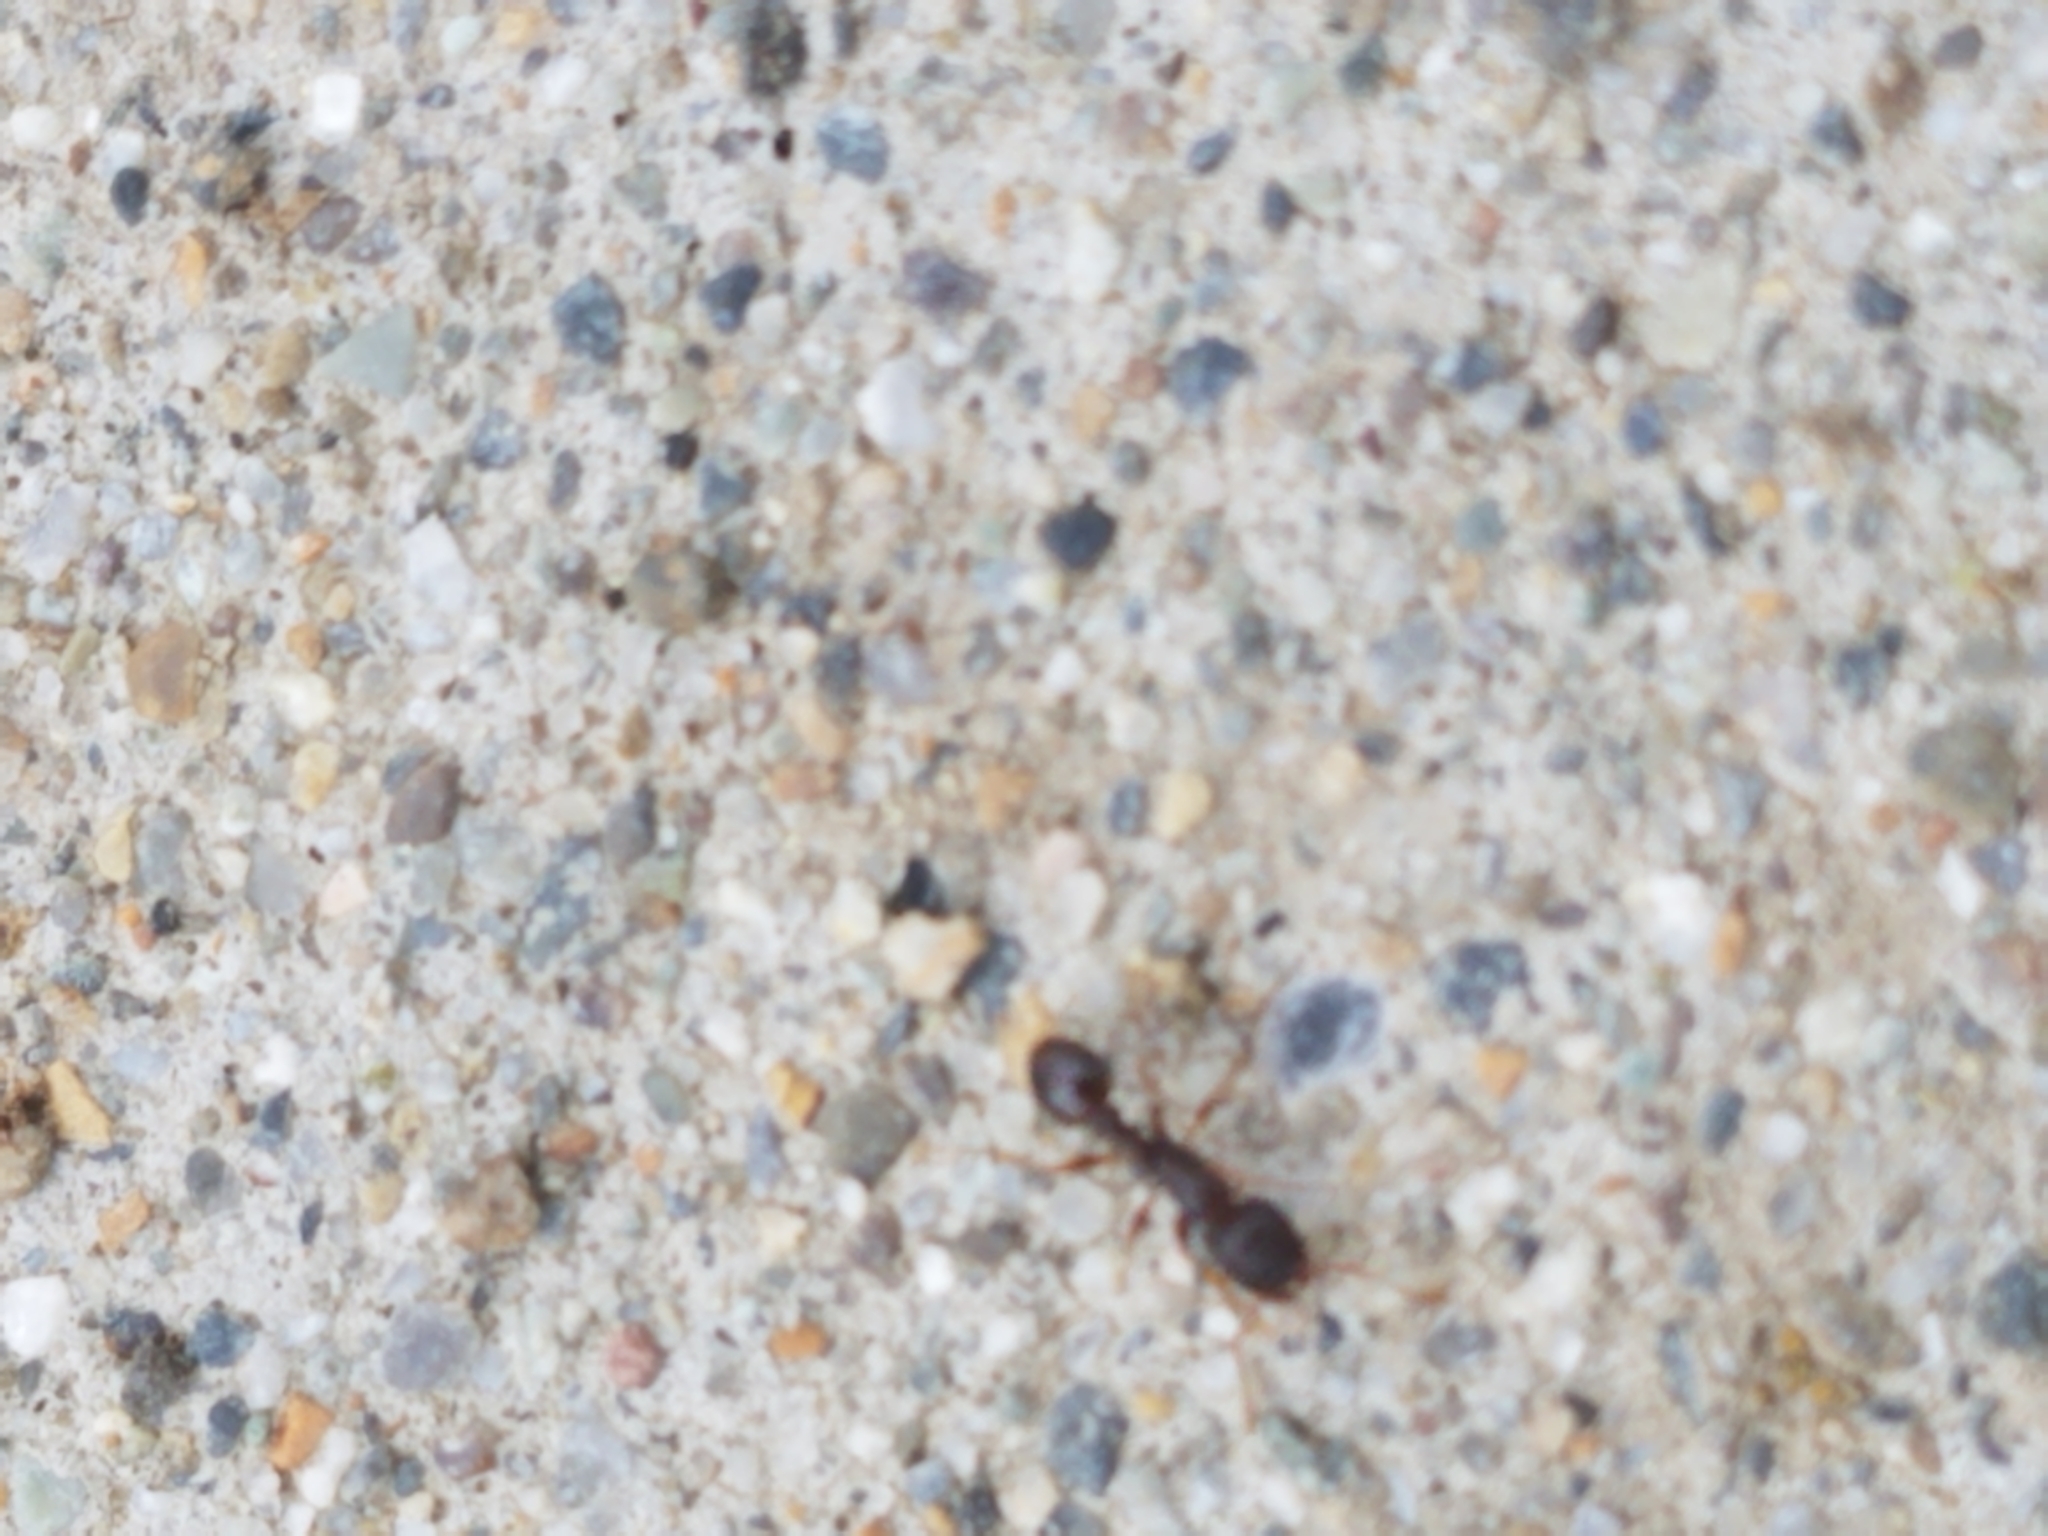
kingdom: Animalia
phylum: Arthropoda
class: Insecta
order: Hymenoptera
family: Formicidae
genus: Tetramorium
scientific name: Tetramorium immigrans
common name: Pavement ant
